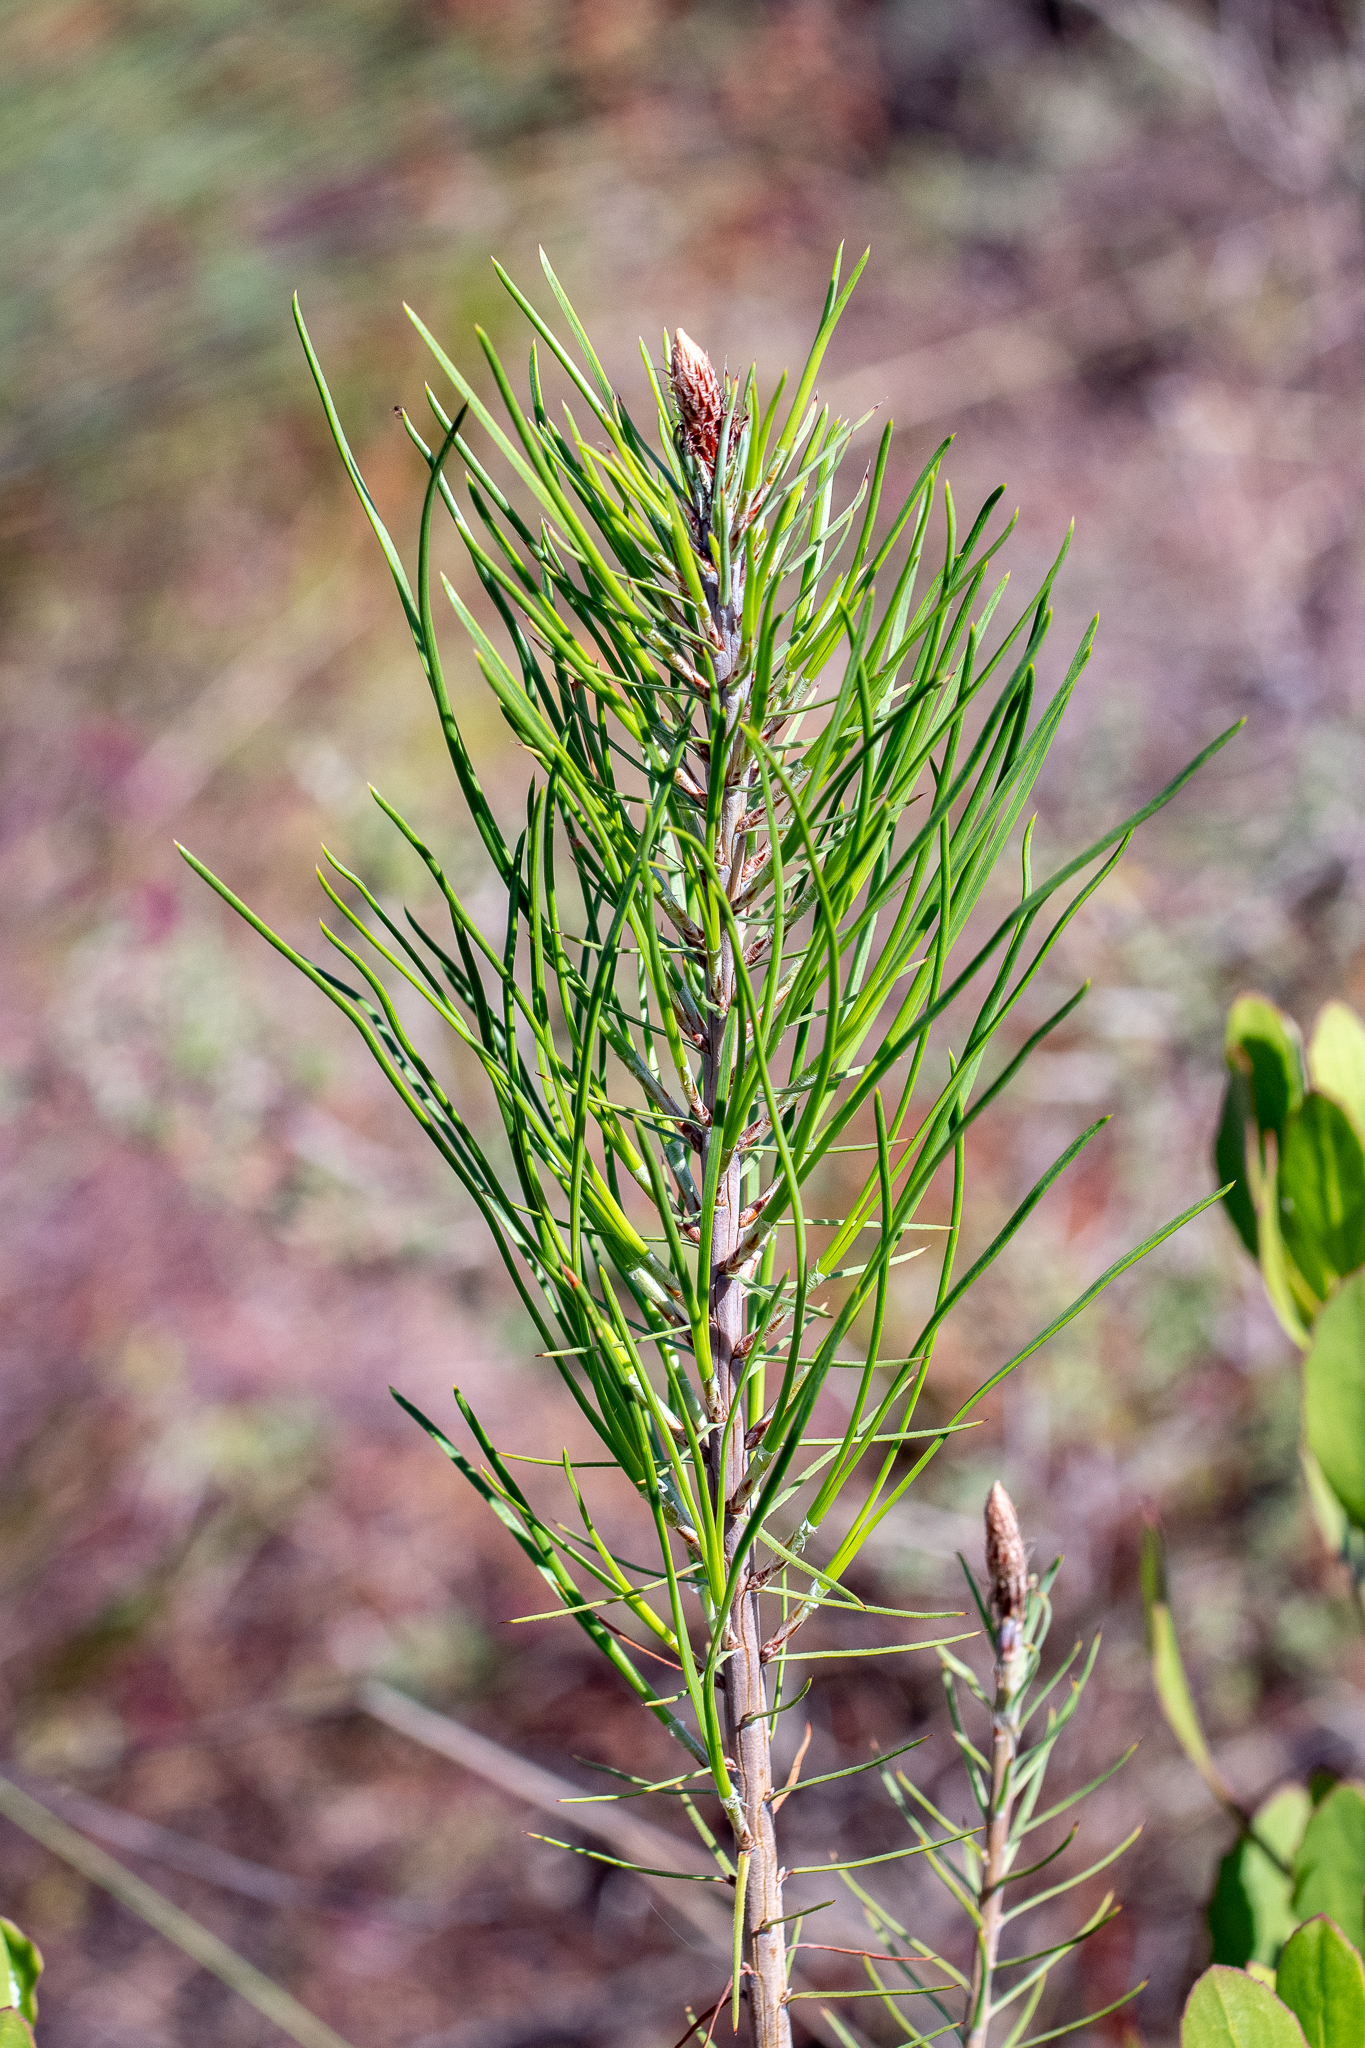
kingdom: Plantae
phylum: Tracheophyta
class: Pinopsida
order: Pinales
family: Pinaceae
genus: Pinus
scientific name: Pinus pinaster
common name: Maritime pine
